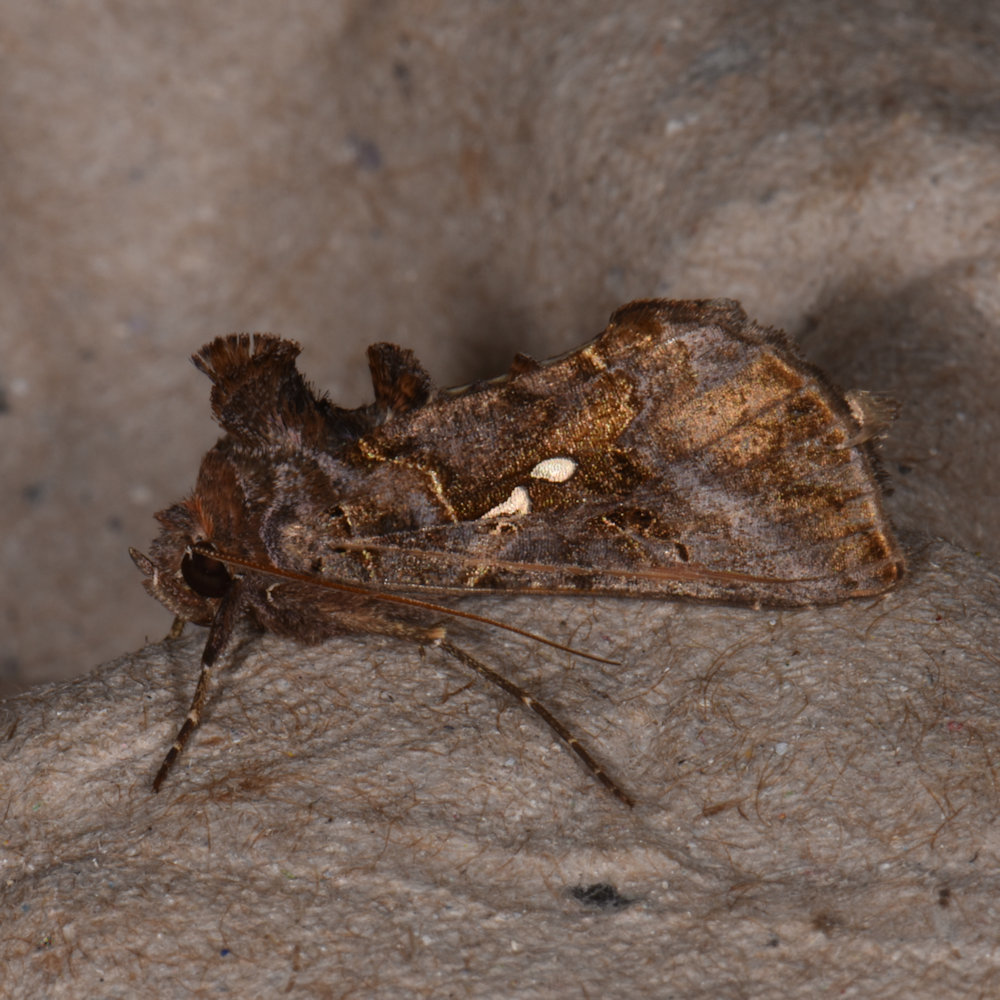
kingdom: Animalia
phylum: Arthropoda
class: Insecta
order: Lepidoptera
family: Noctuidae
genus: Autographa
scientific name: Autographa precationis
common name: Common looper moth
